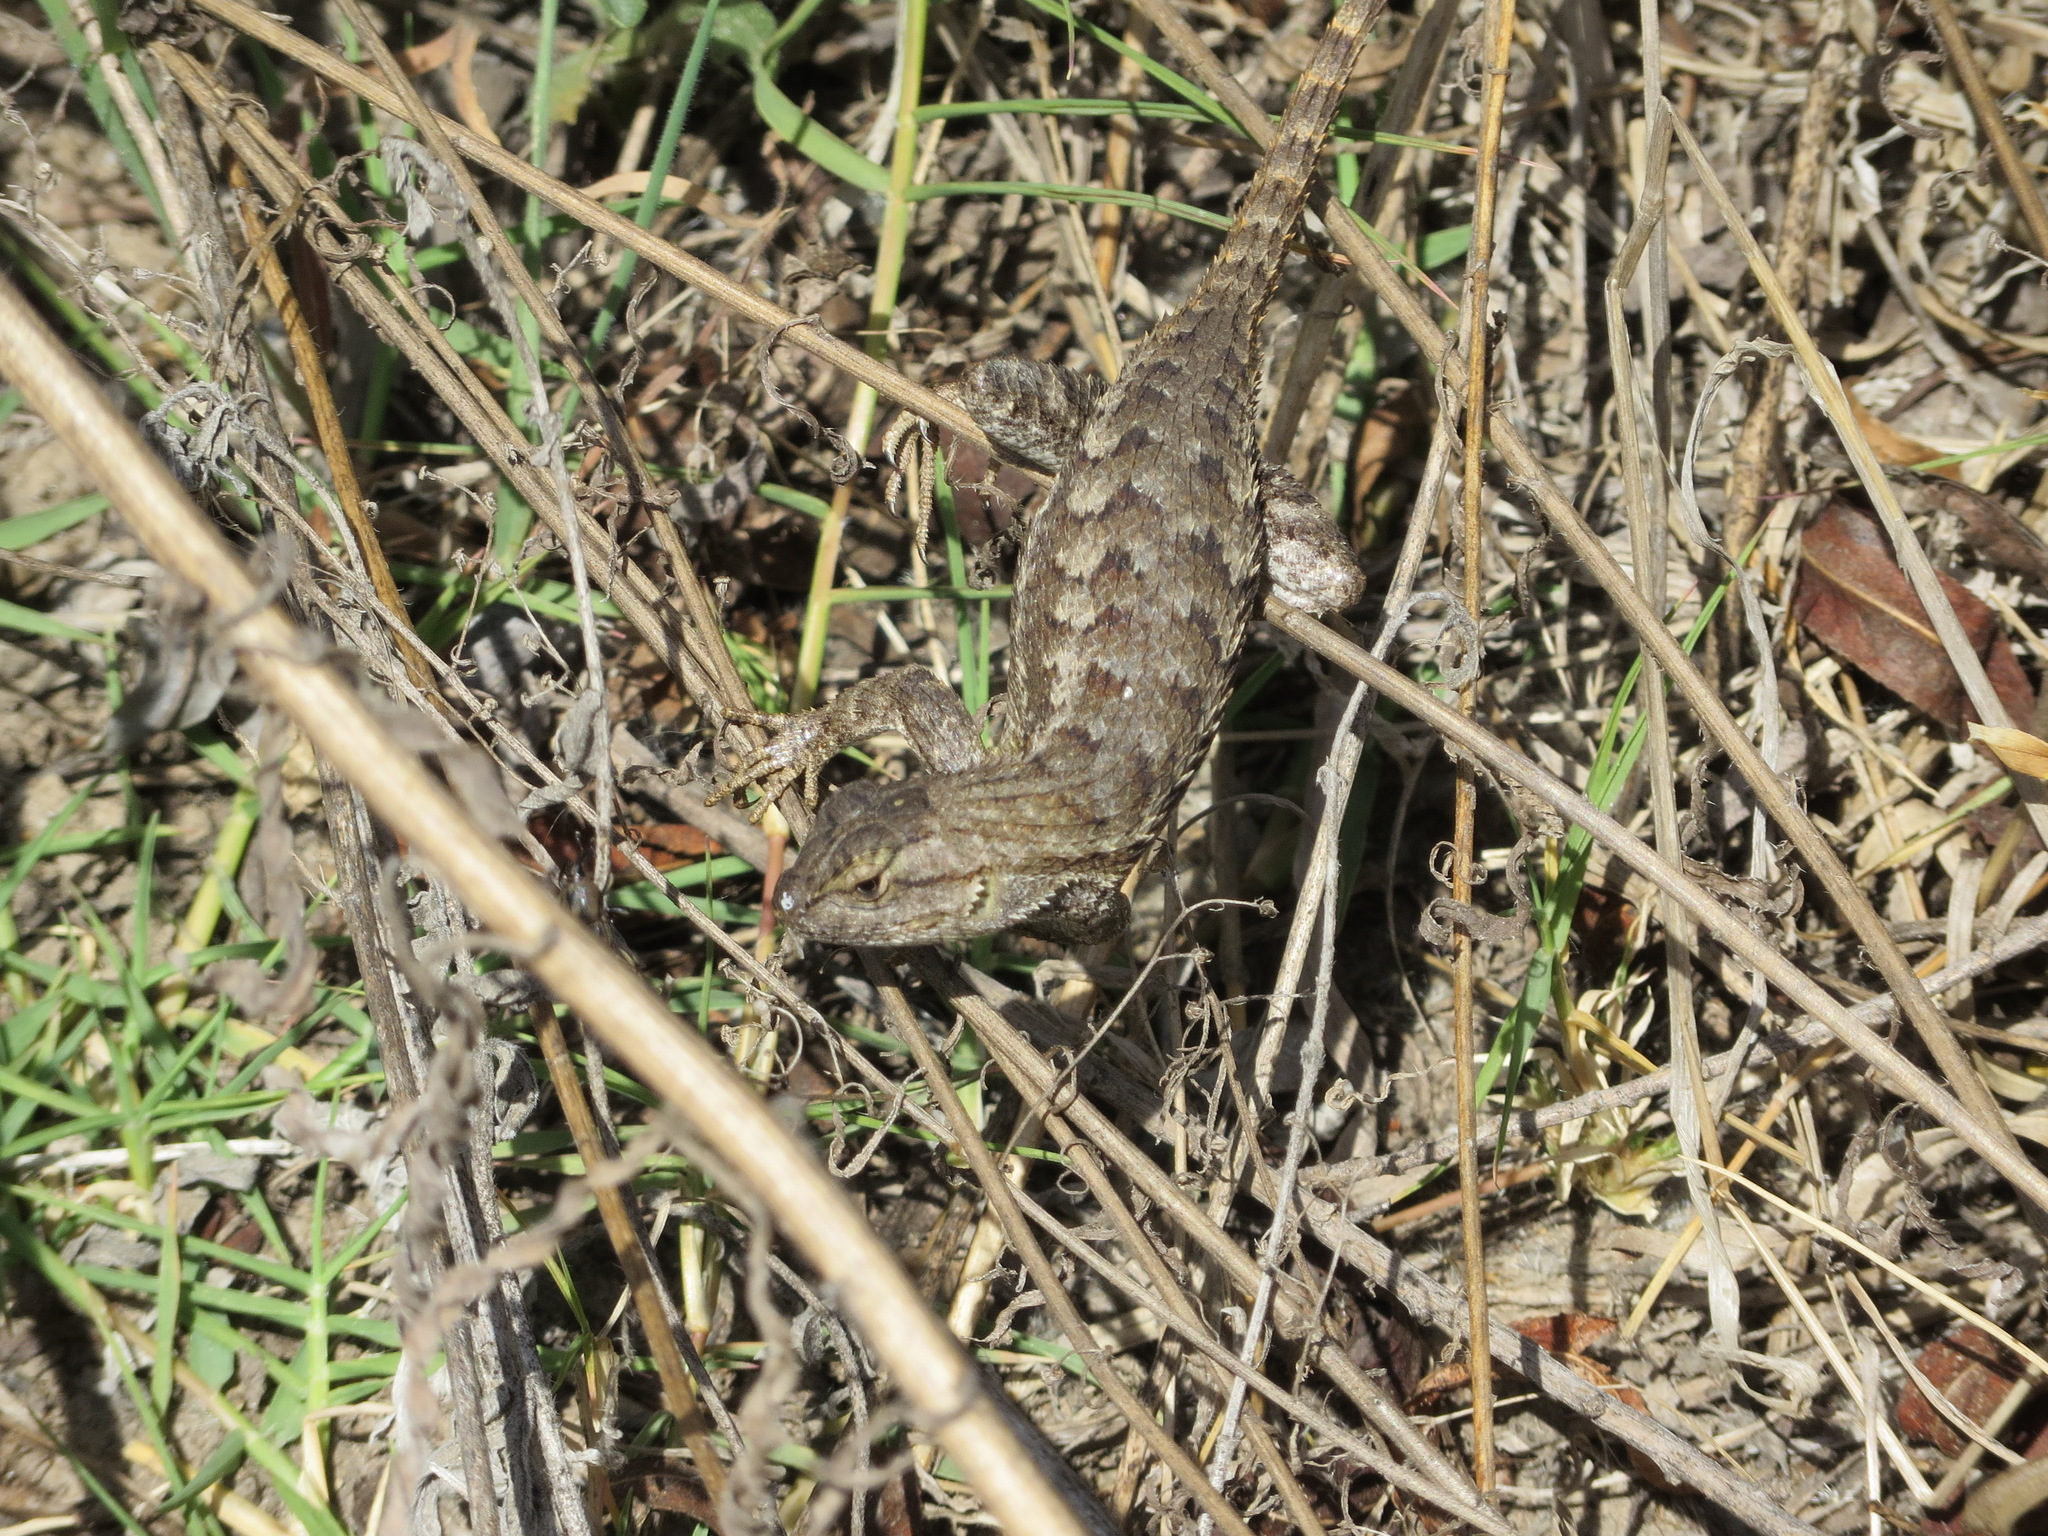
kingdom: Animalia
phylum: Chordata
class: Squamata
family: Phrynosomatidae
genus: Sceloporus
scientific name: Sceloporus occidentalis
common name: Western fence lizard
